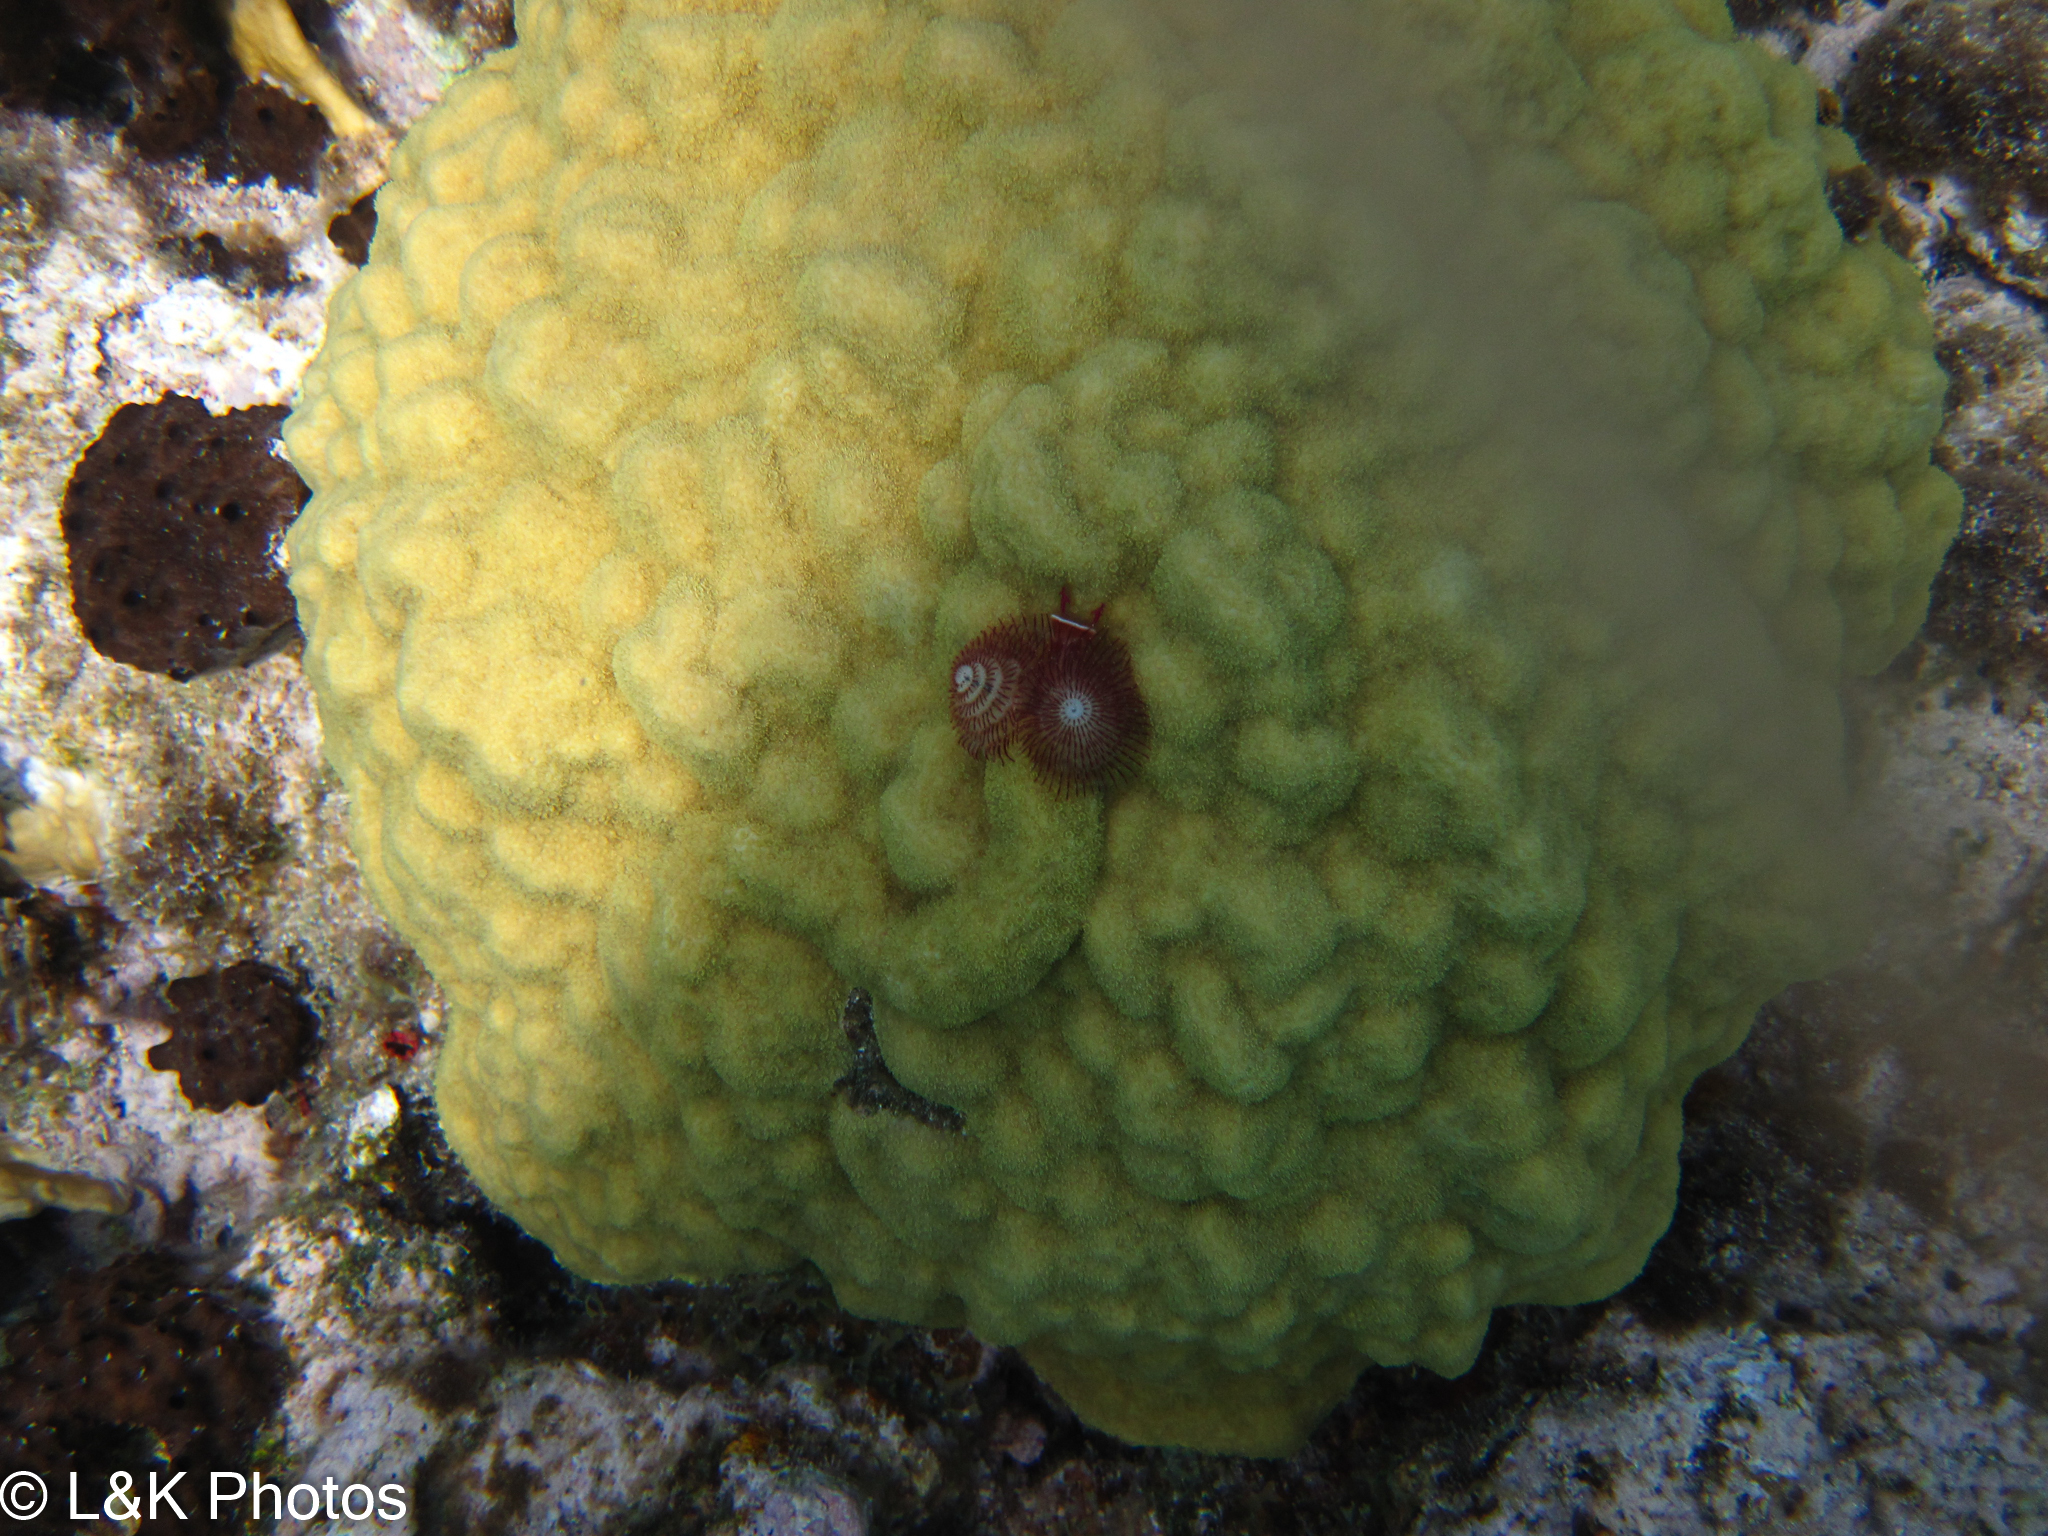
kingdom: Animalia
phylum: Cnidaria
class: Anthozoa
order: Scleractinia
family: Poritidae
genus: Porites
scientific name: Porites astreoides
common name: Mustard hill coral
